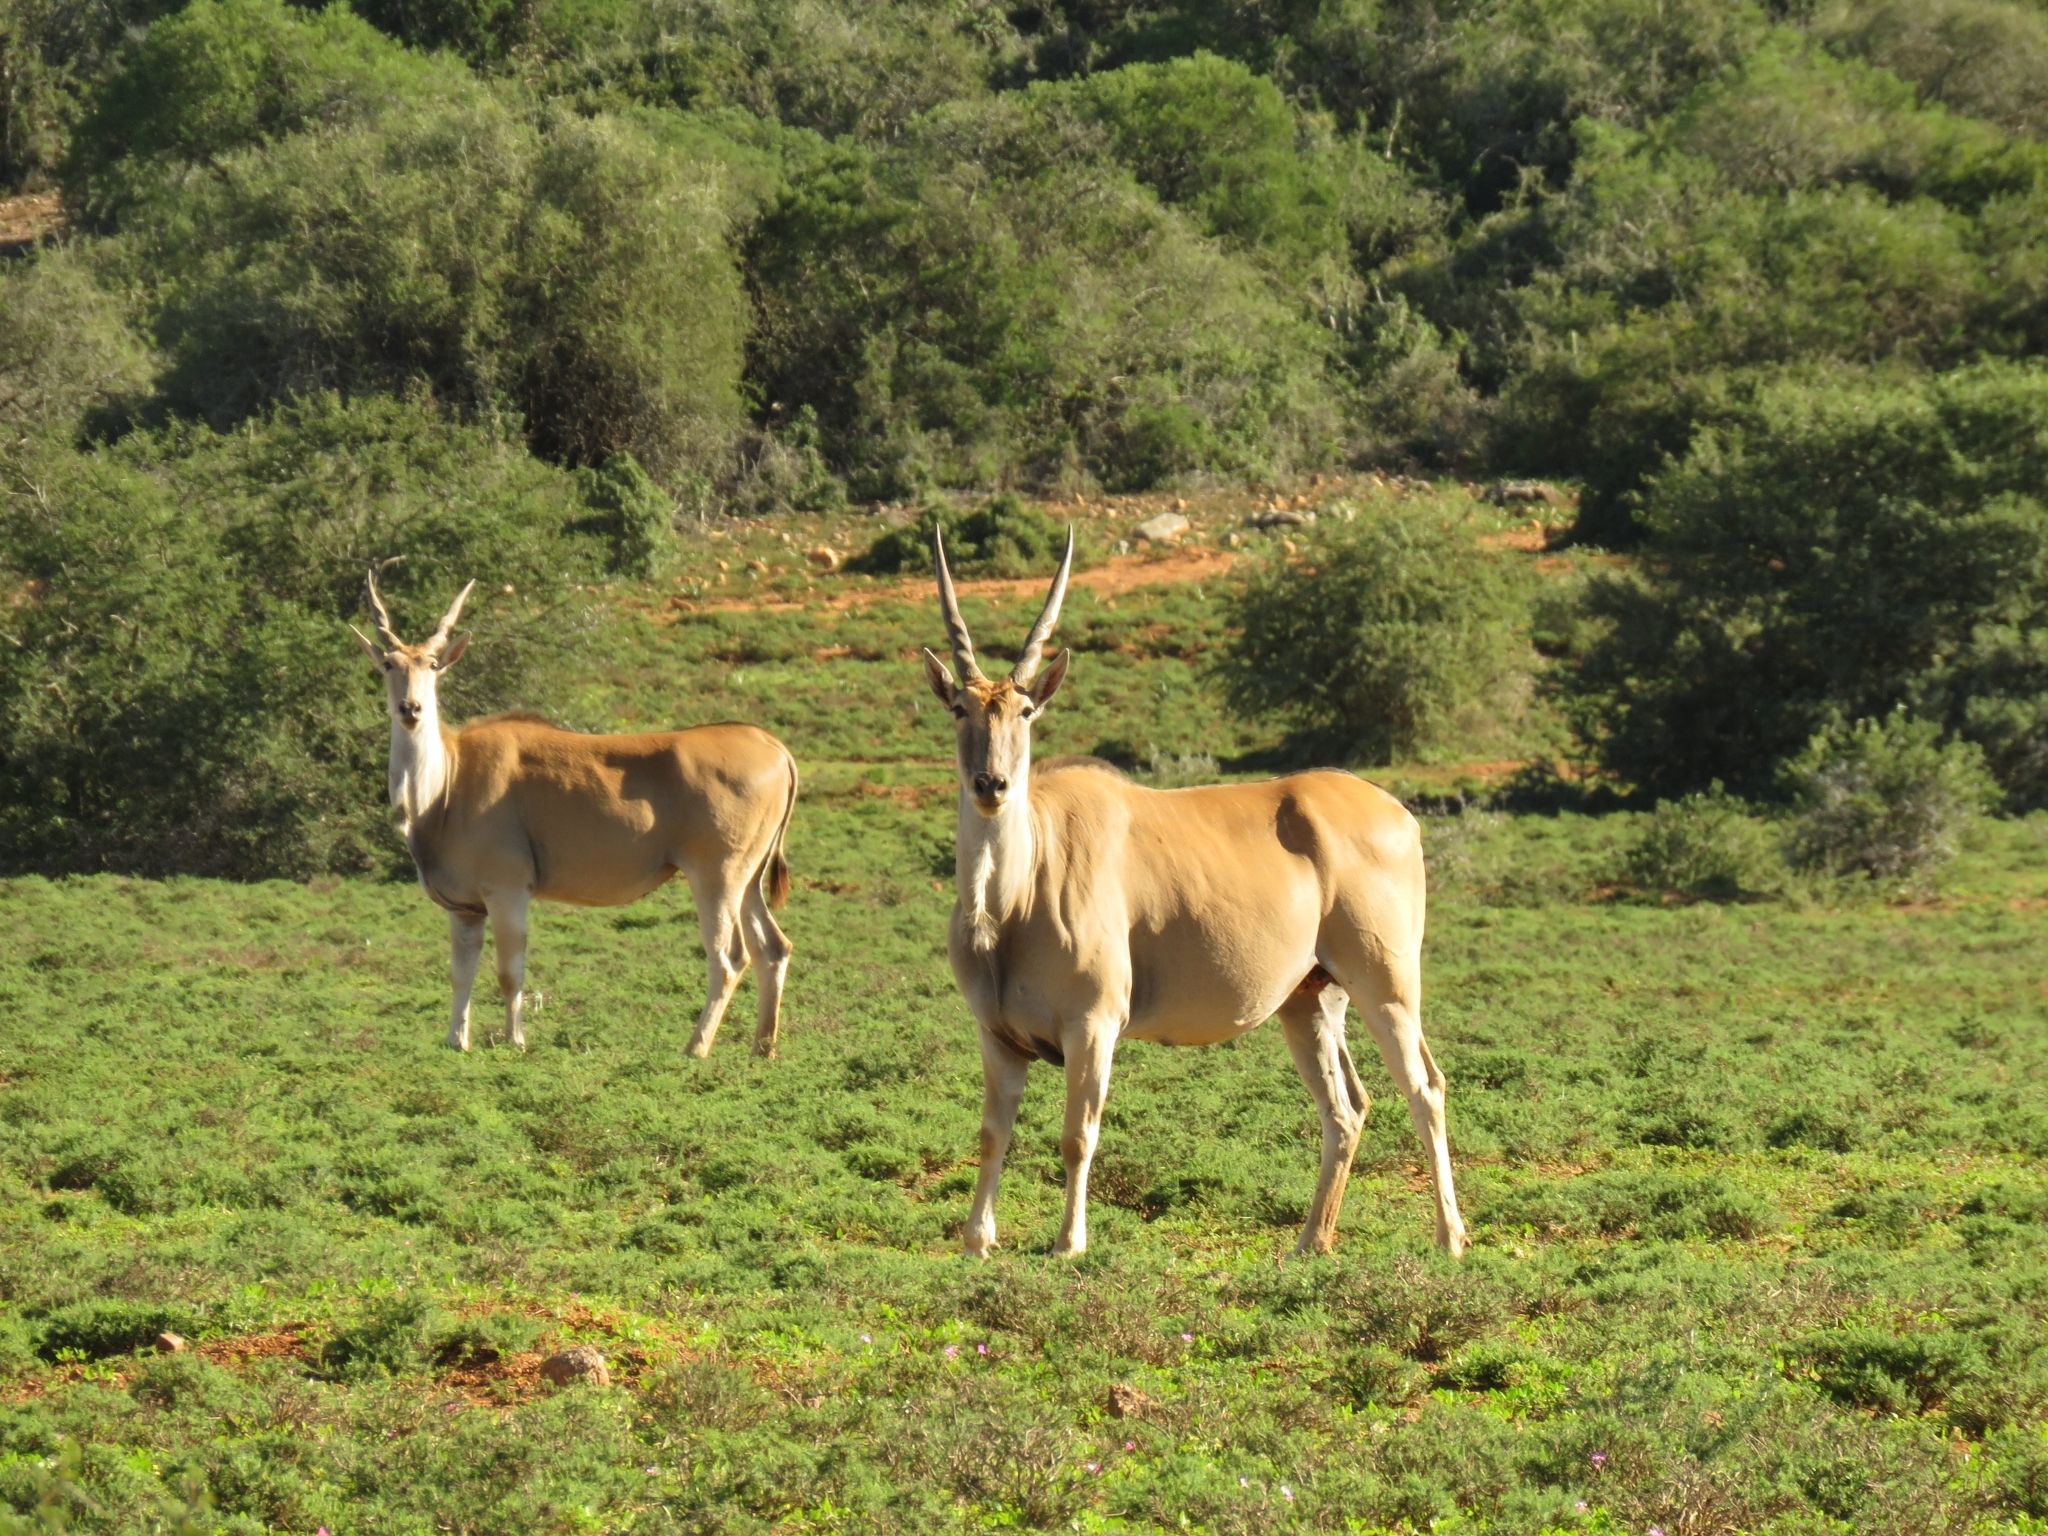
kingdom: Animalia
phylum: Chordata
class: Mammalia
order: Artiodactyla
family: Bovidae
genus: Taurotragus
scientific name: Taurotragus oryx
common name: Common eland
